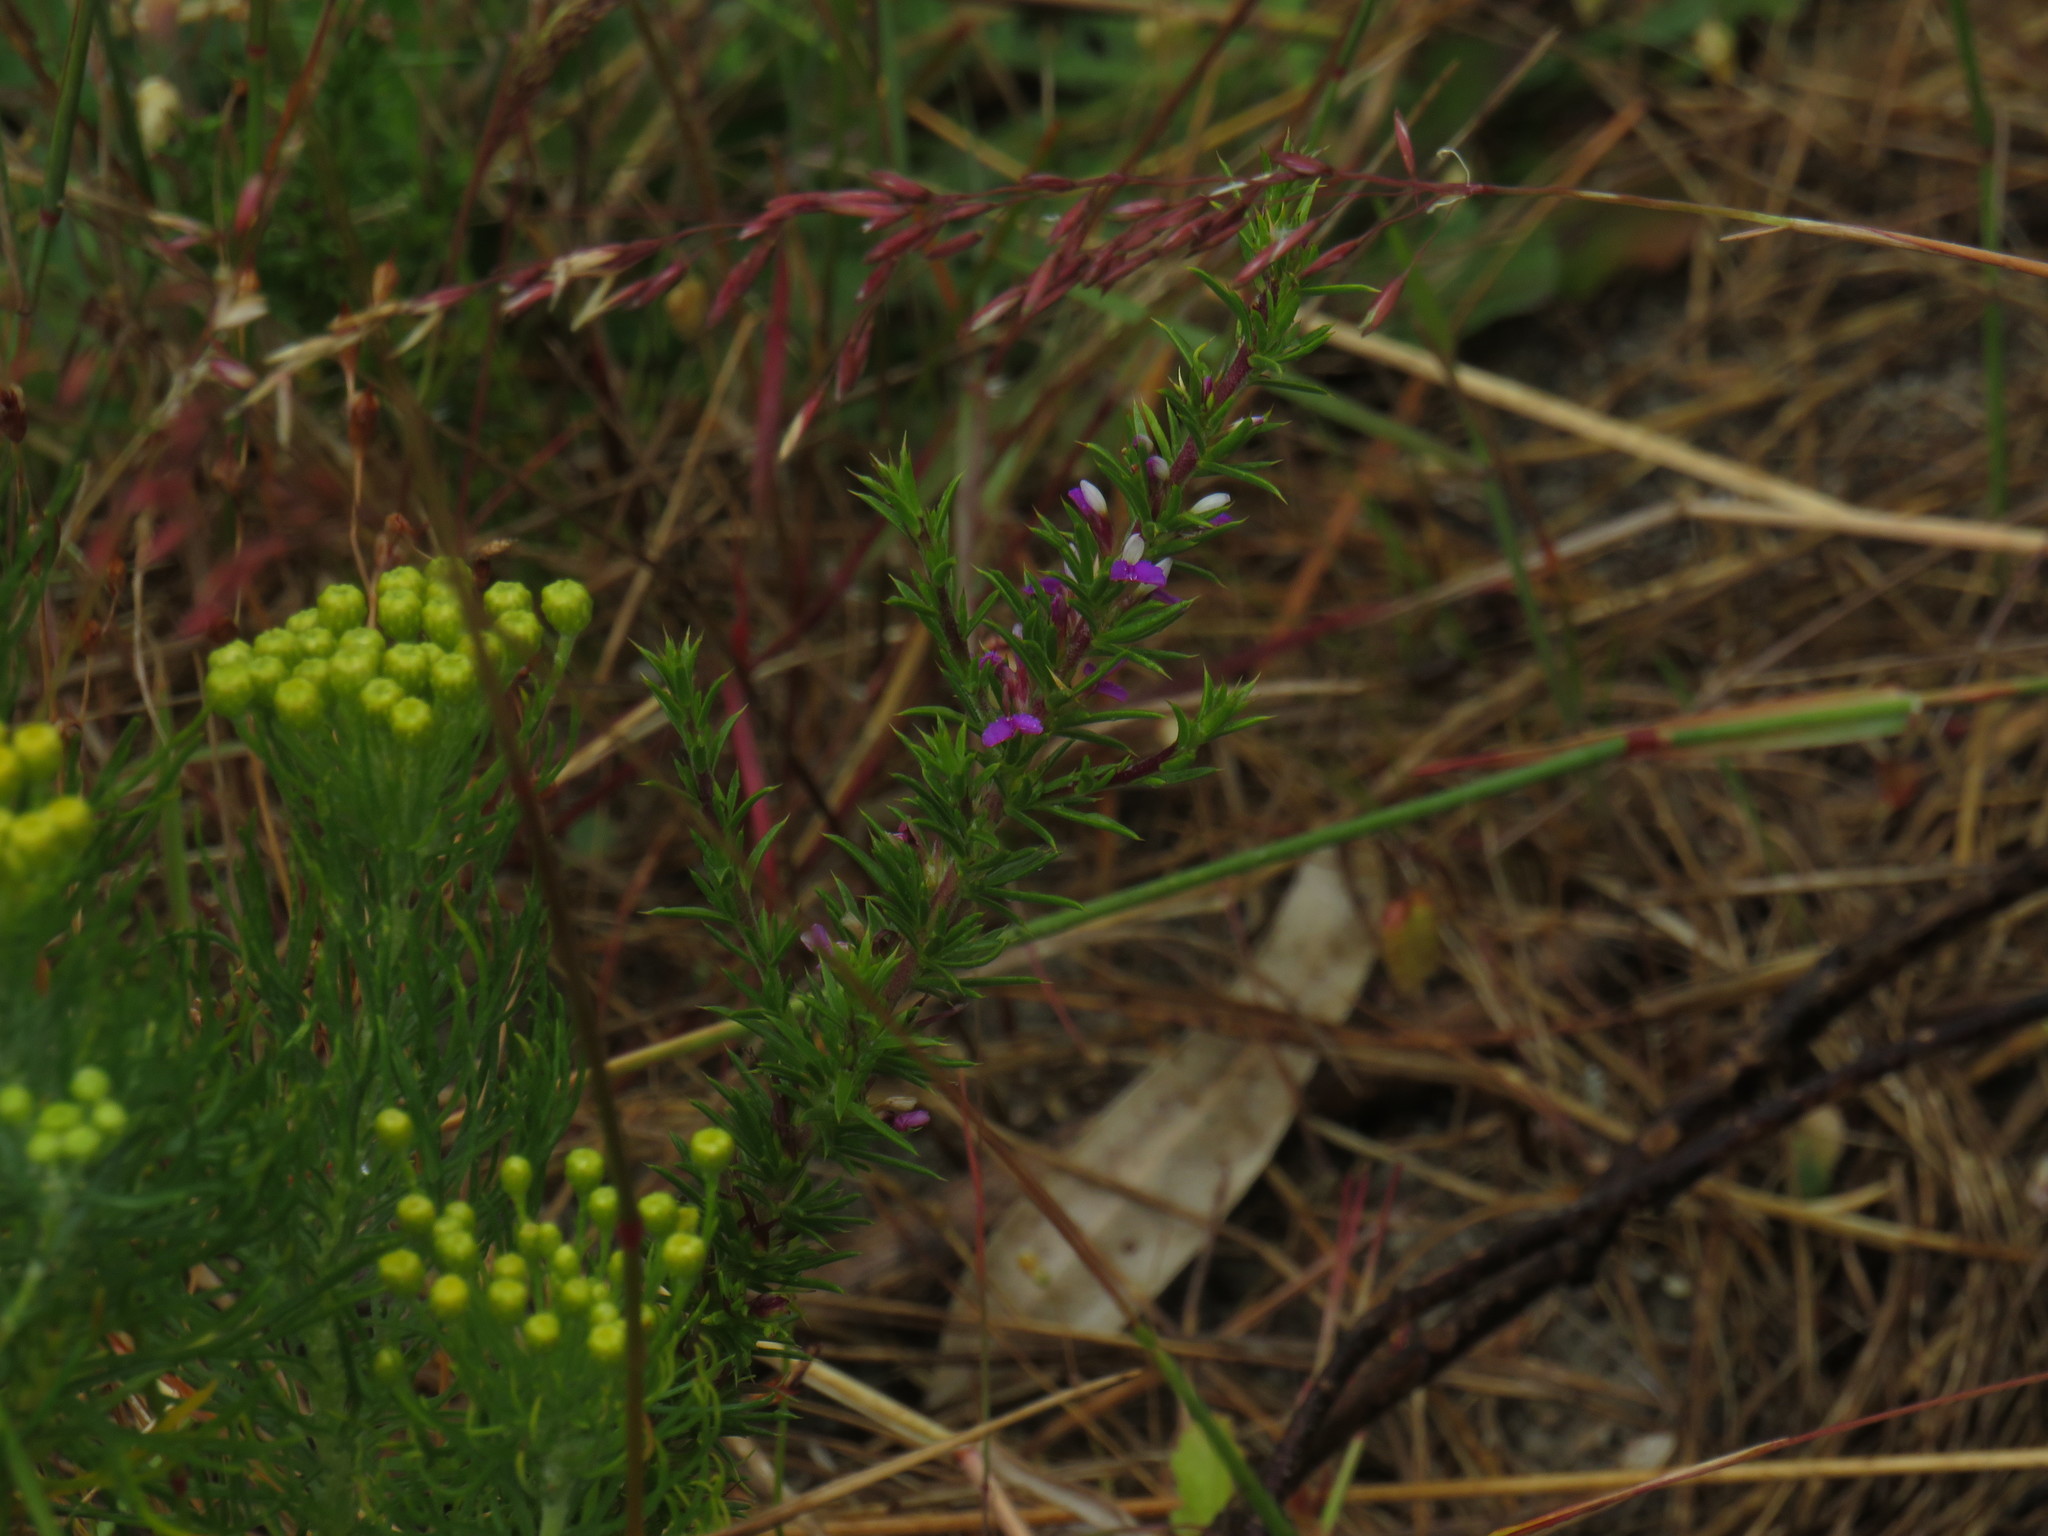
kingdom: Plantae
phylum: Tracheophyta
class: Magnoliopsida
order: Fabales
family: Polygalaceae
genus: Muraltia
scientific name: Muraltia heisteria
